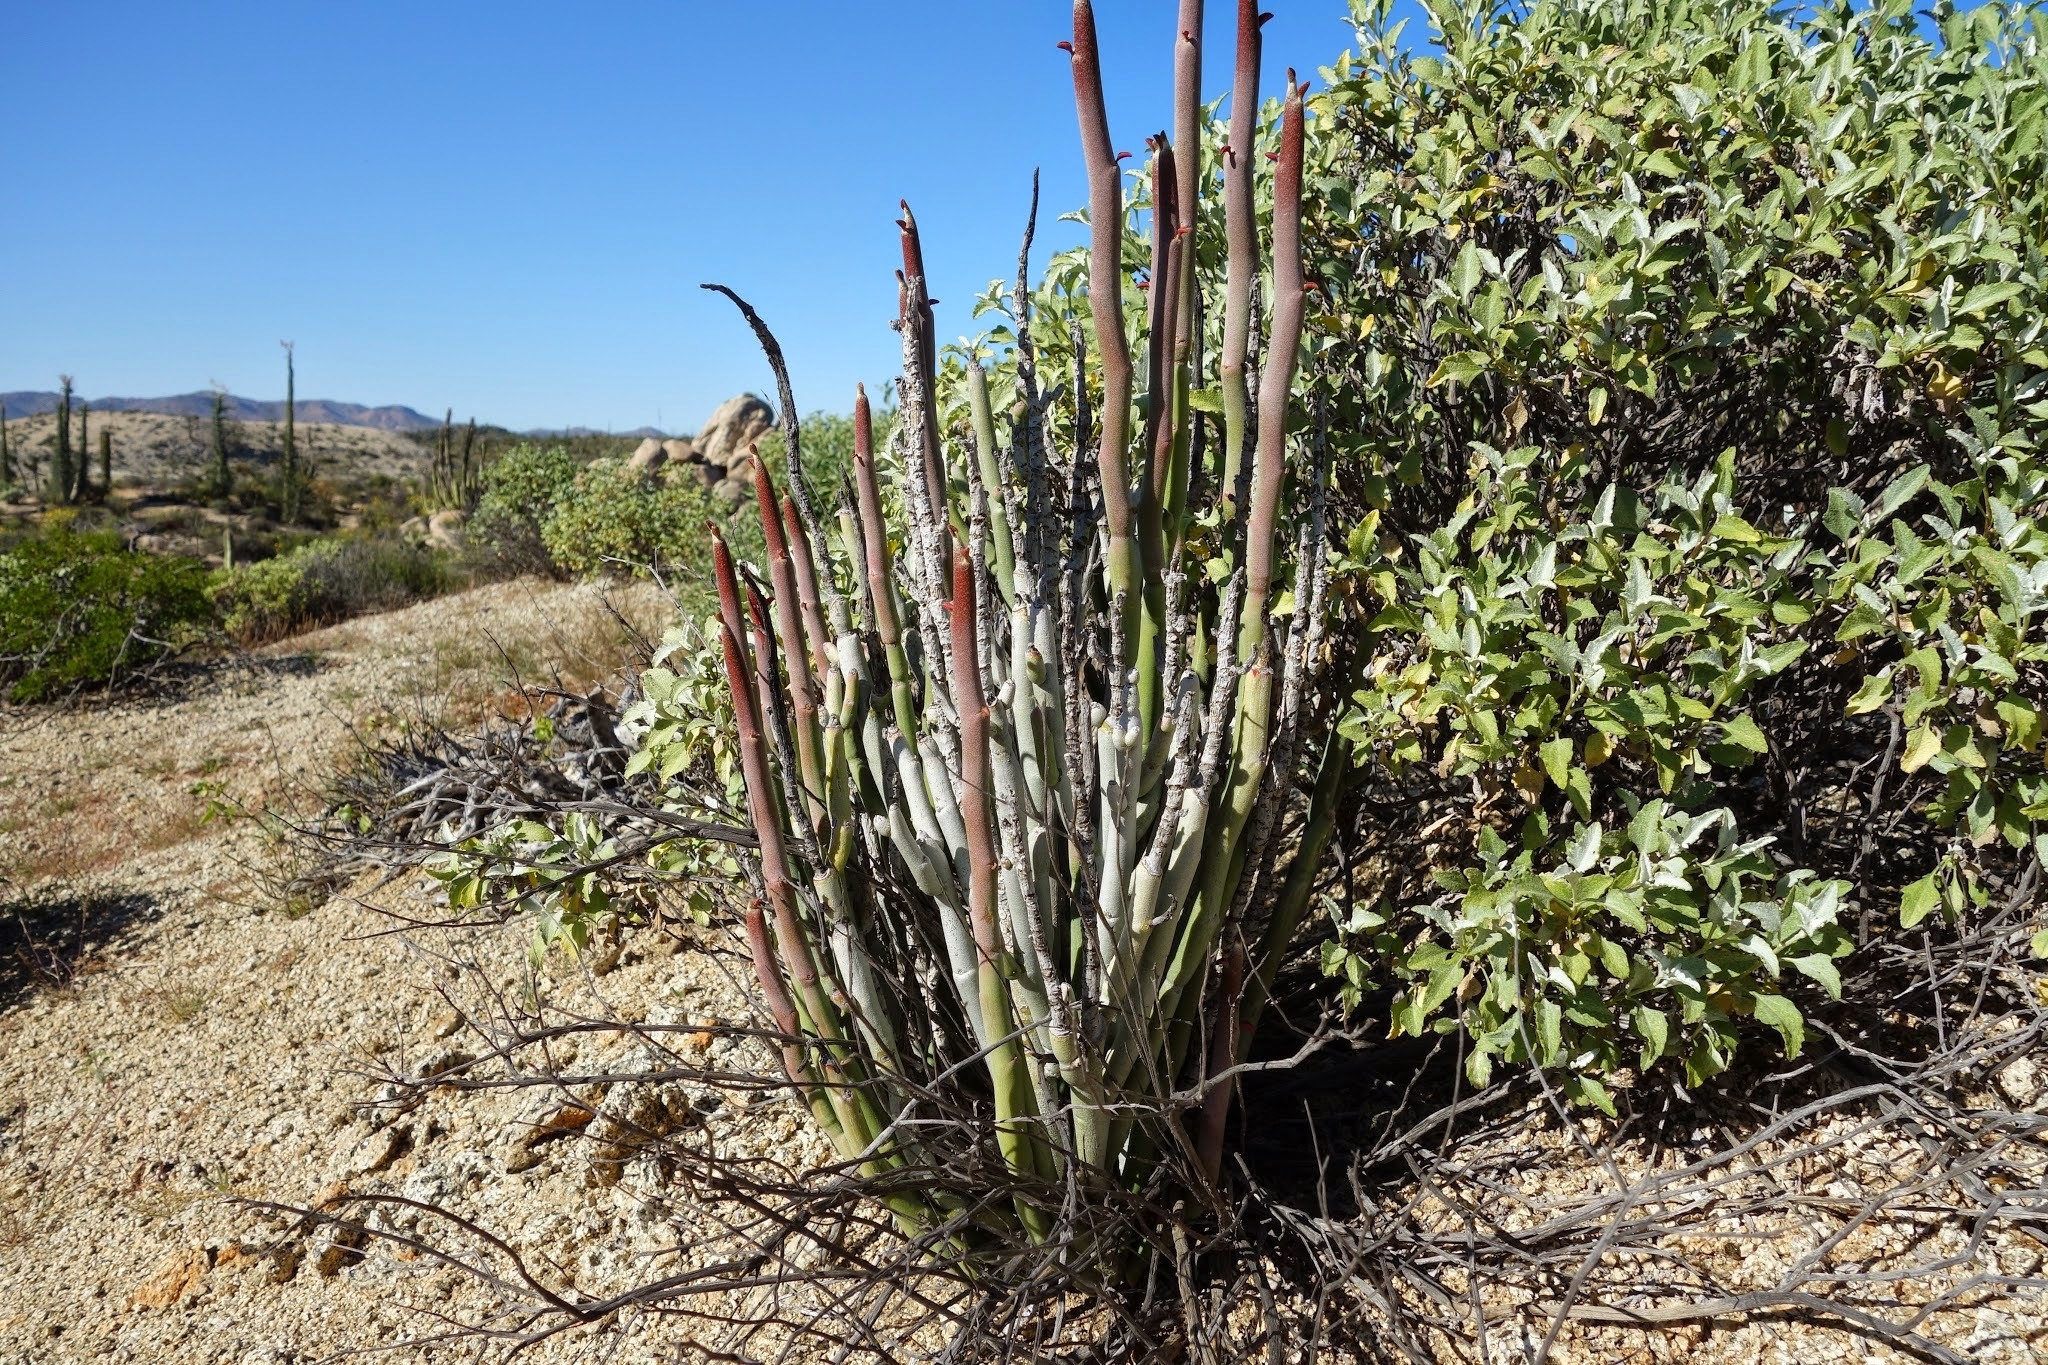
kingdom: Plantae
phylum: Tracheophyta
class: Magnoliopsida
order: Malpighiales
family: Euphorbiaceae
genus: Euphorbia
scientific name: Euphorbia lomelii
